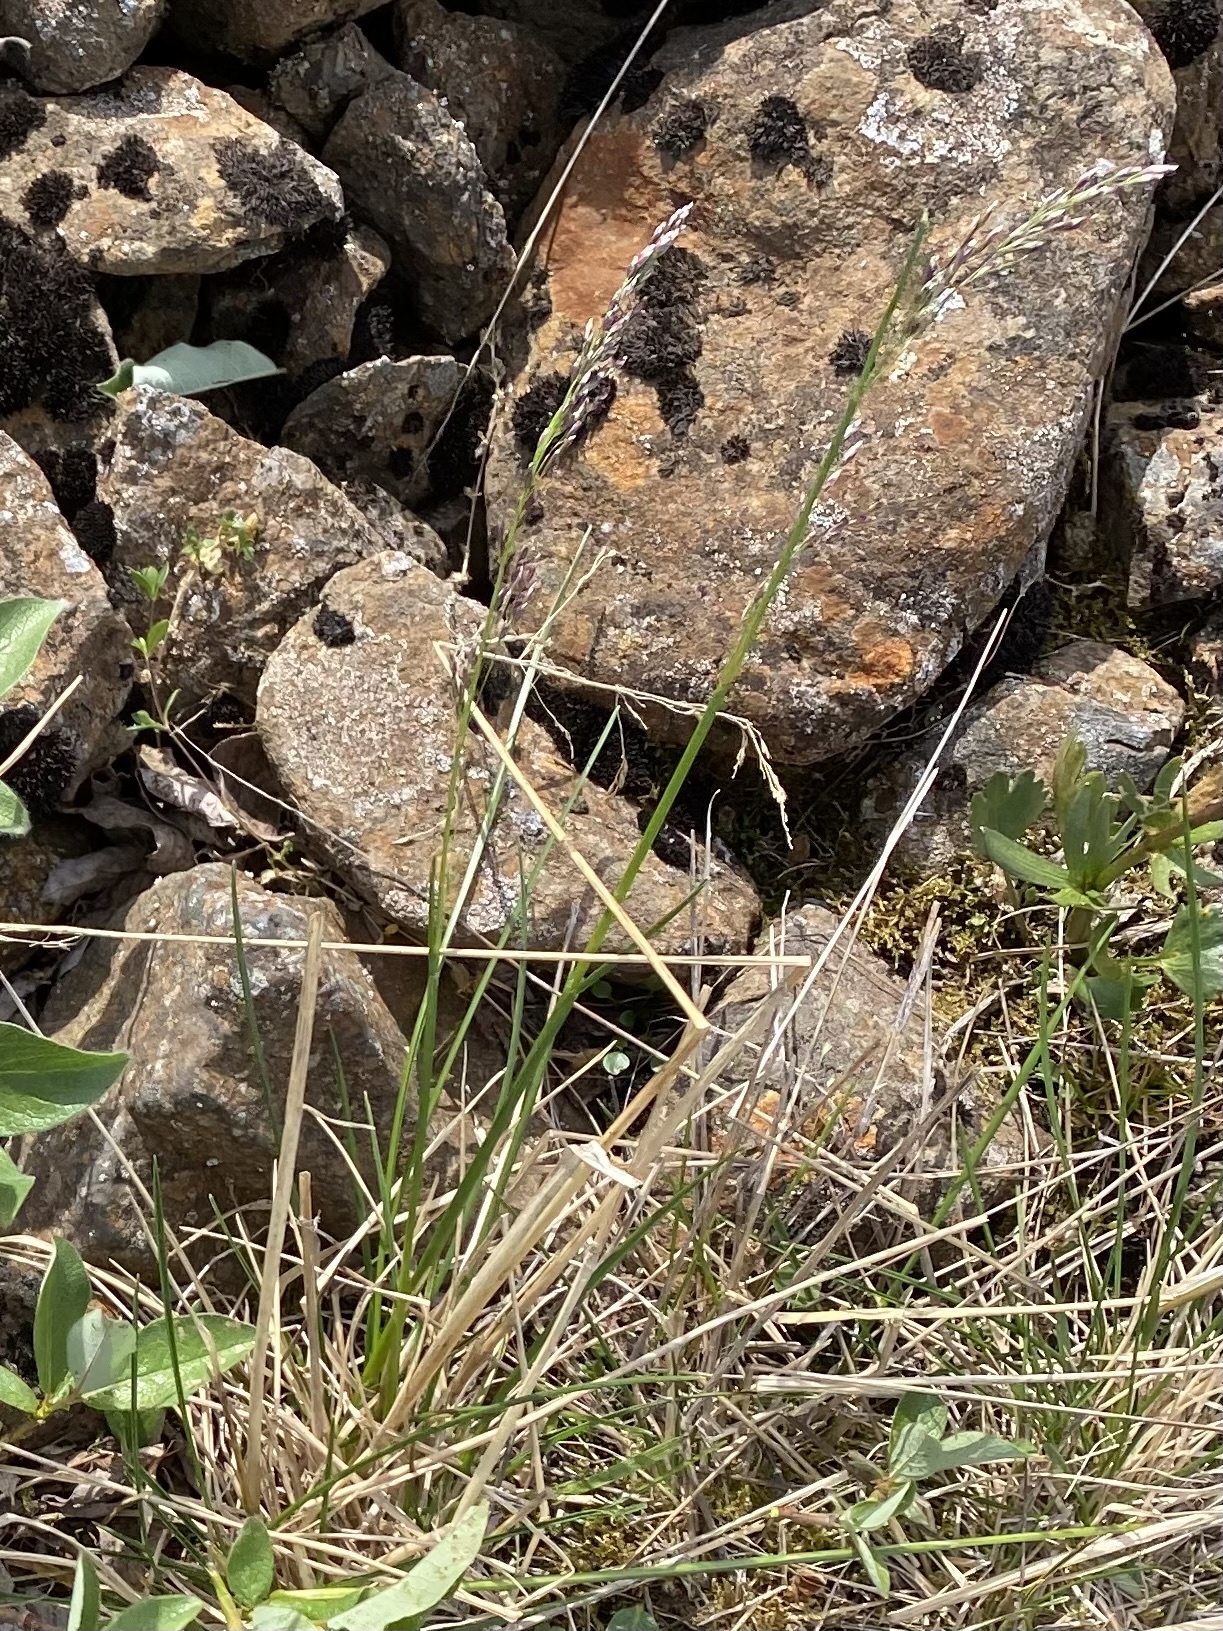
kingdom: Plantae
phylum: Tracheophyta
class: Liliopsida
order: Poales
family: Poaceae
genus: Deschampsia
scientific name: Deschampsia cespitosa
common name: Tufted hair-grass
